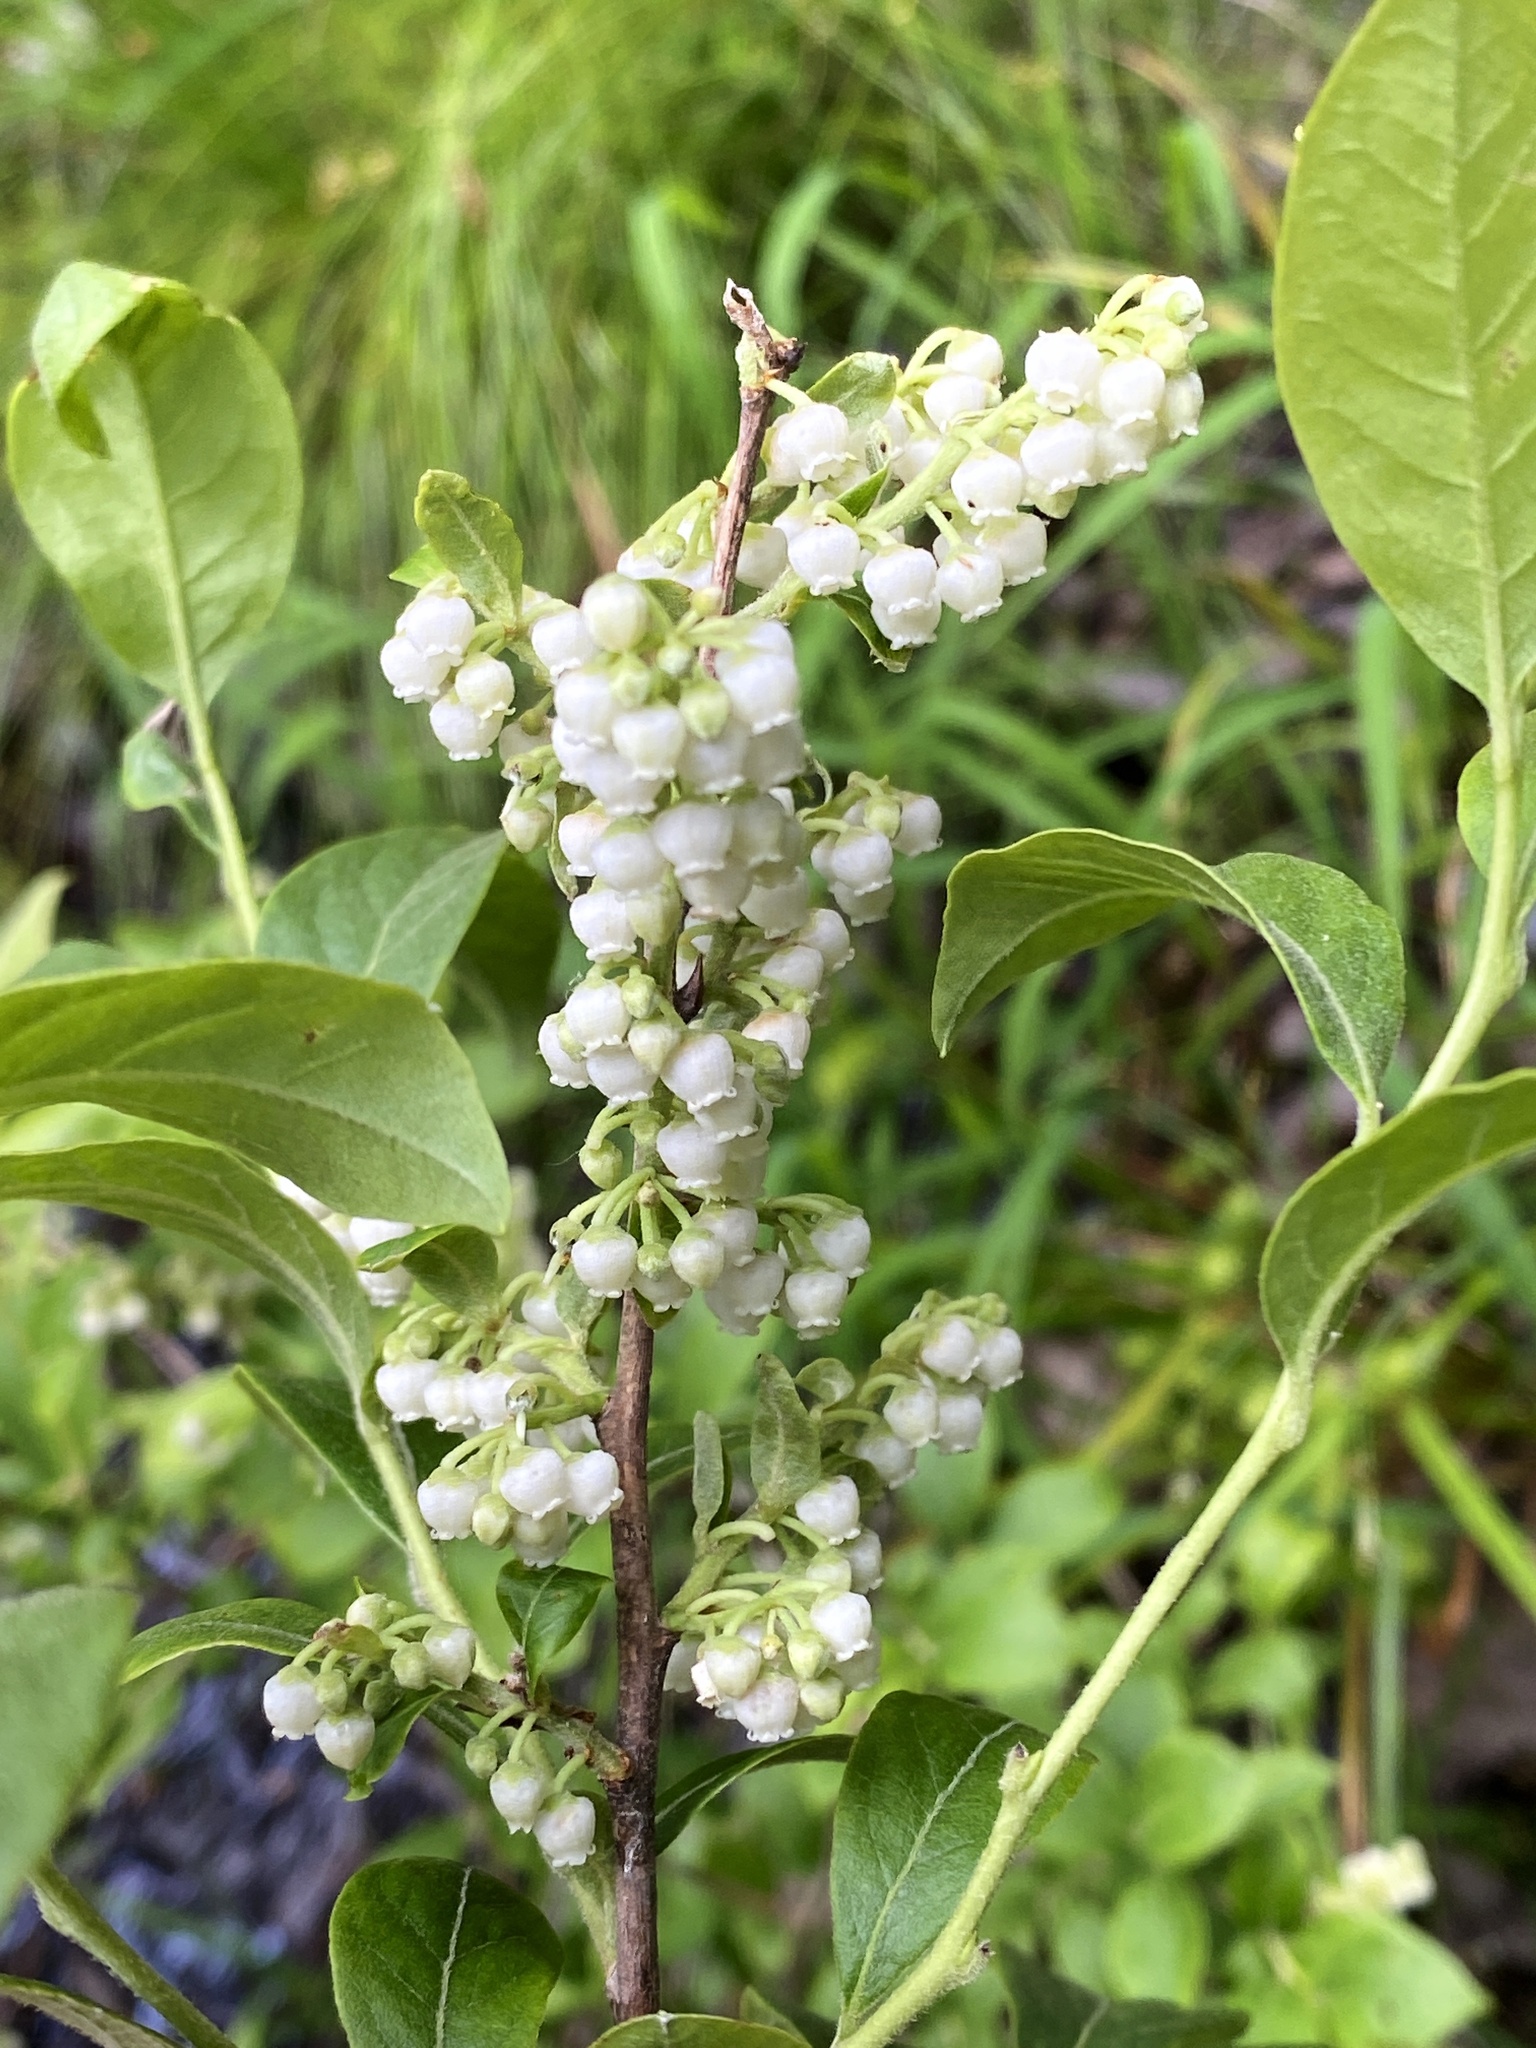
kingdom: Plantae
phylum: Tracheophyta
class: Magnoliopsida
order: Ericales
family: Ericaceae
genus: Lyonia
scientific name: Lyonia ligustrina
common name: Maleberry
